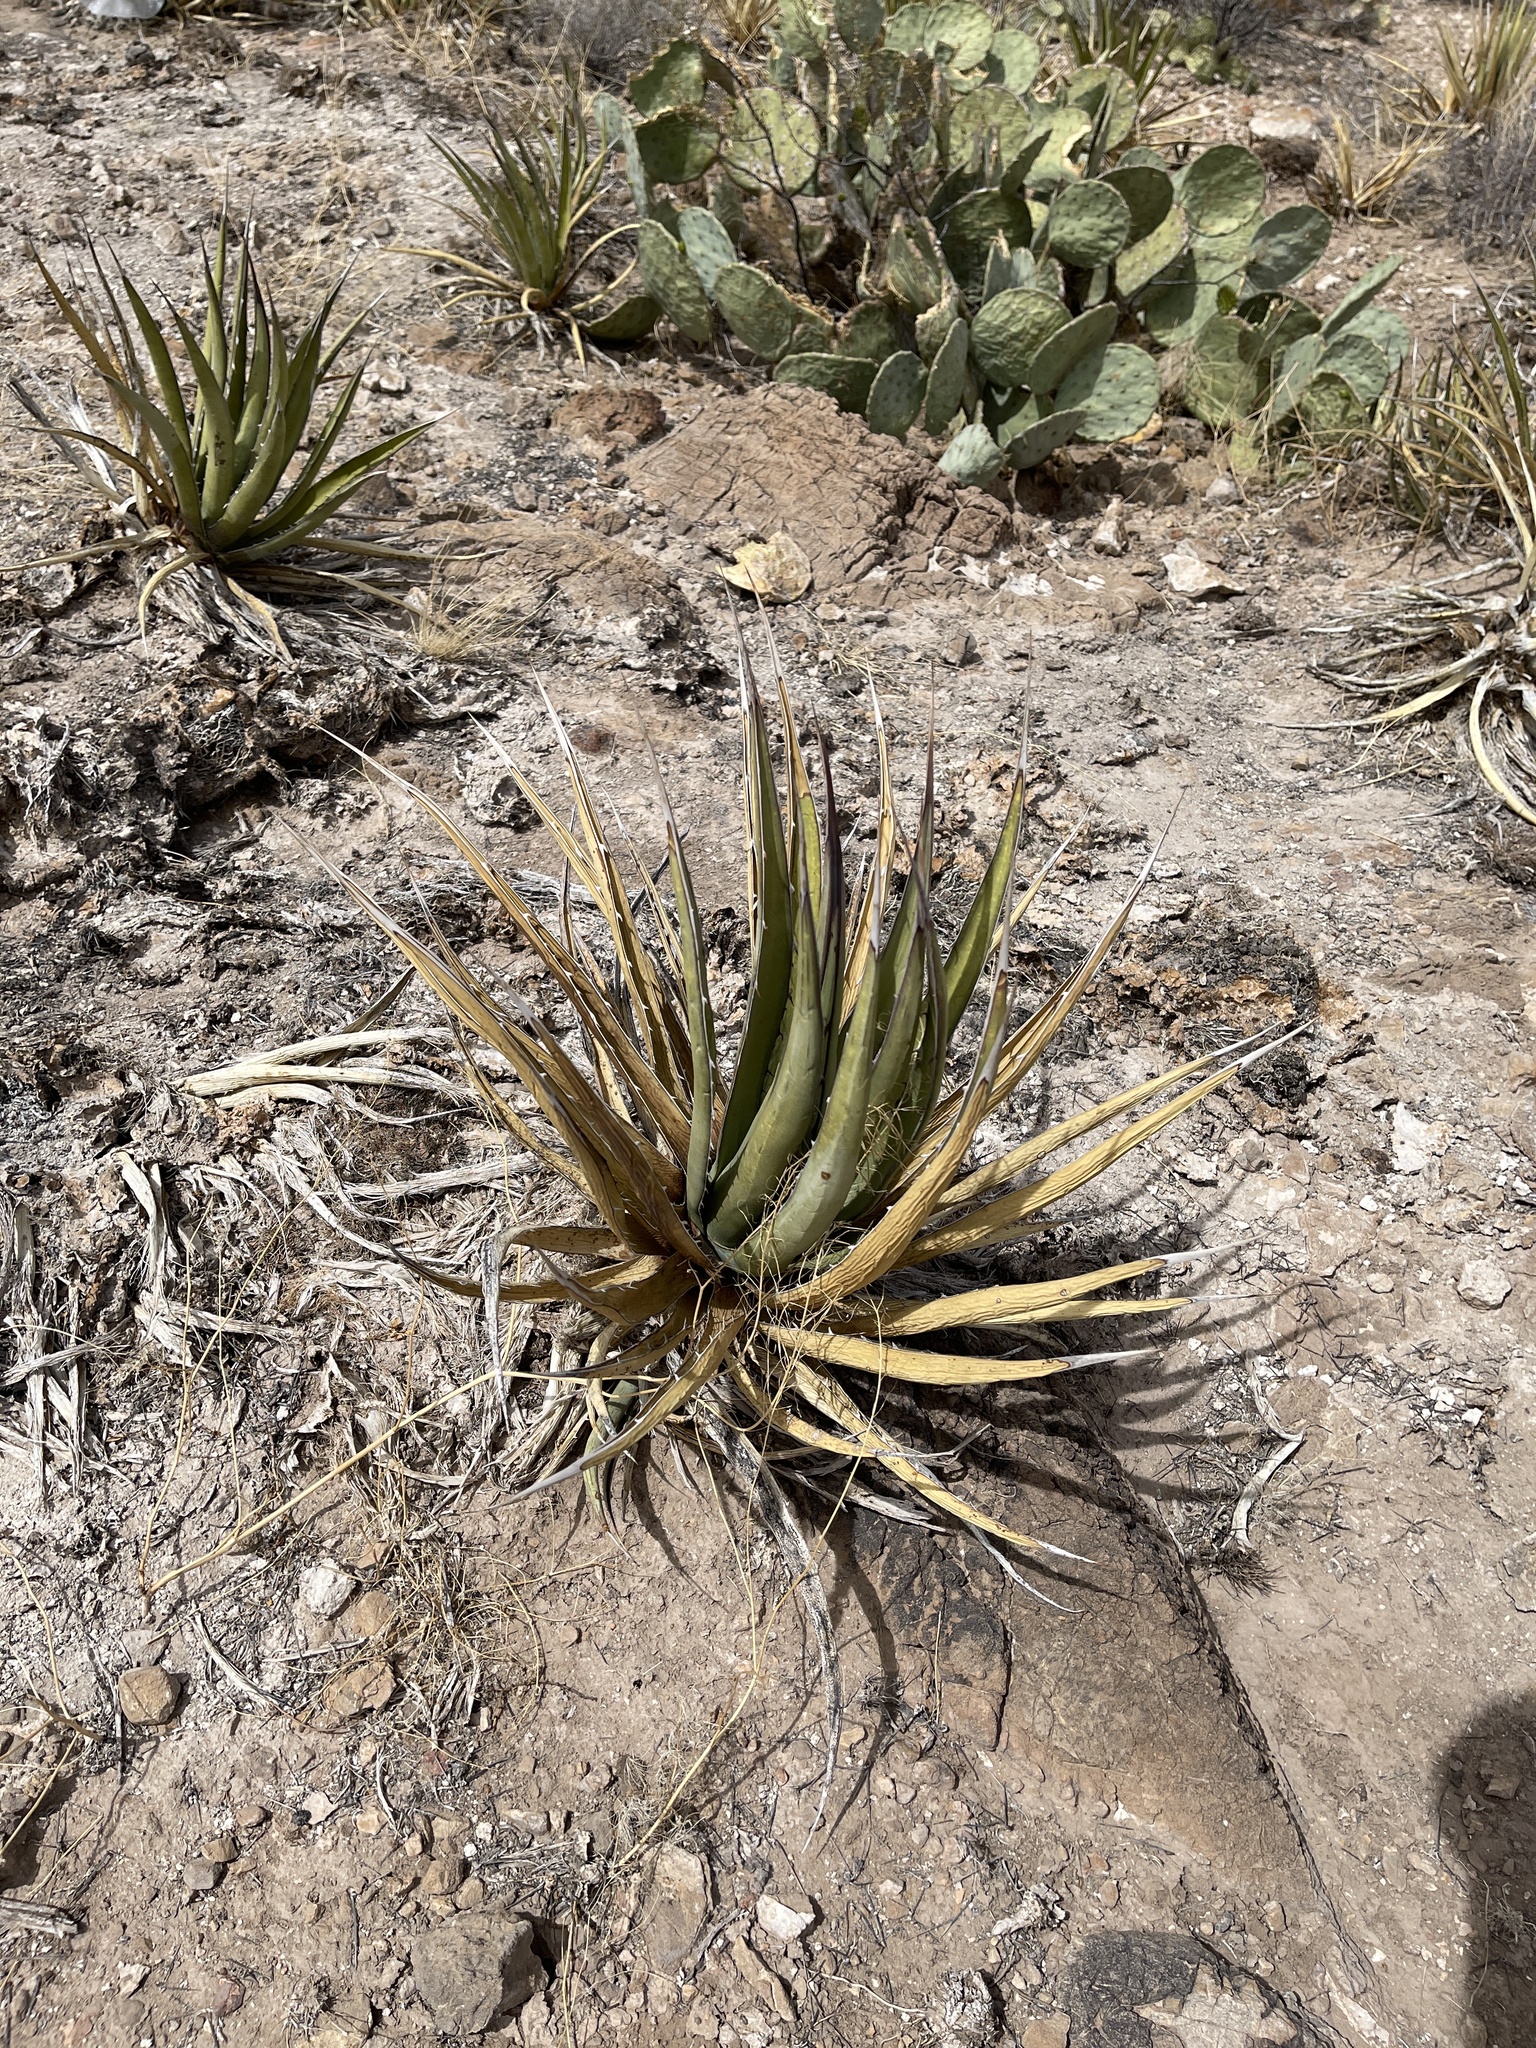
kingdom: Plantae
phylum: Tracheophyta
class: Liliopsida
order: Asparagales
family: Asparagaceae
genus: Agave
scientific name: Agave lechuguilla
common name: Lecheguilla agave
